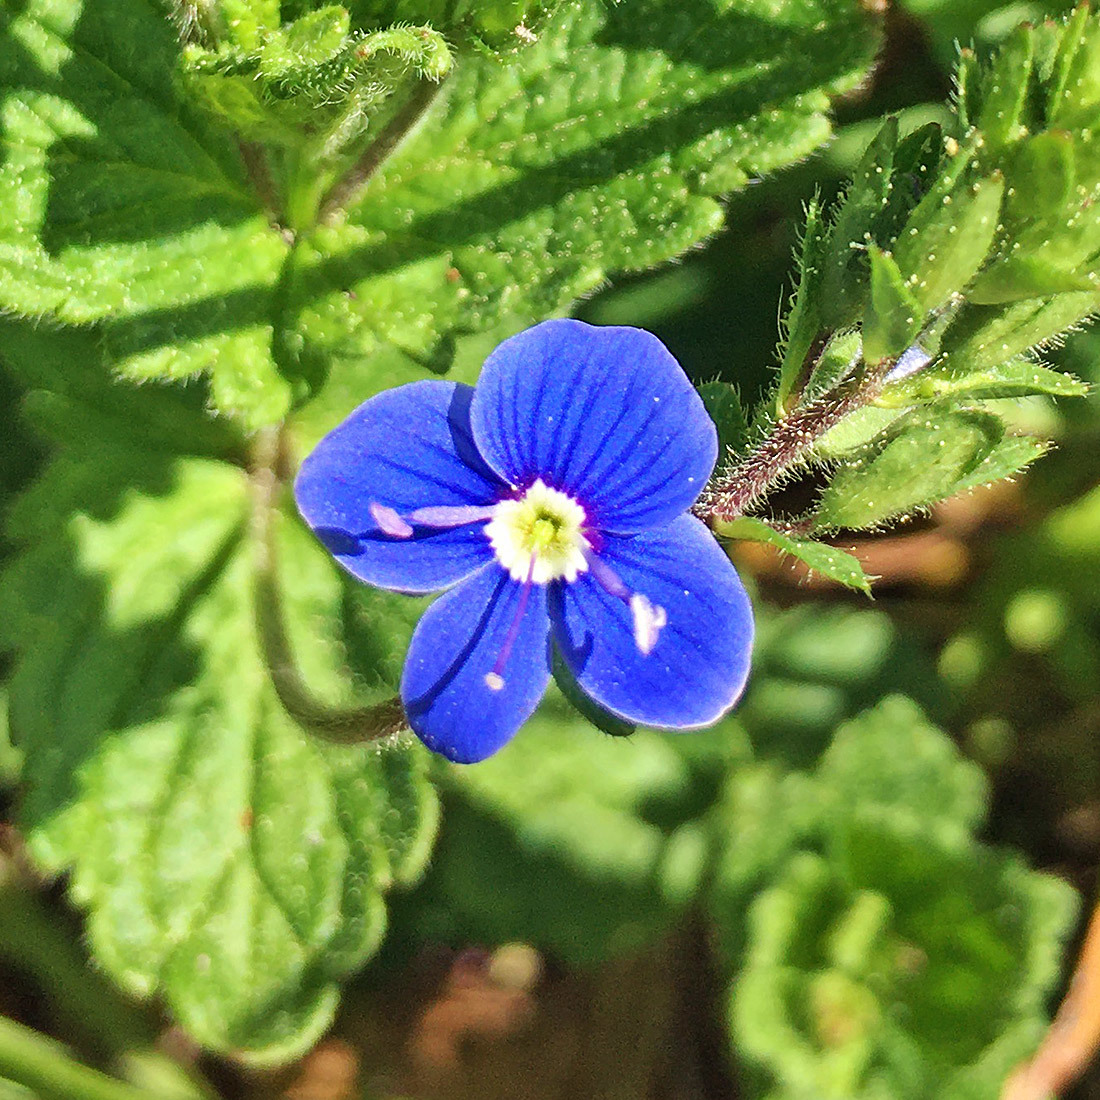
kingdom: Plantae
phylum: Tracheophyta
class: Magnoliopsida
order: Lamiales
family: Plantaginaceae
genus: Veronica
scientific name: Veronica chamaedrys
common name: Germander speedwell
